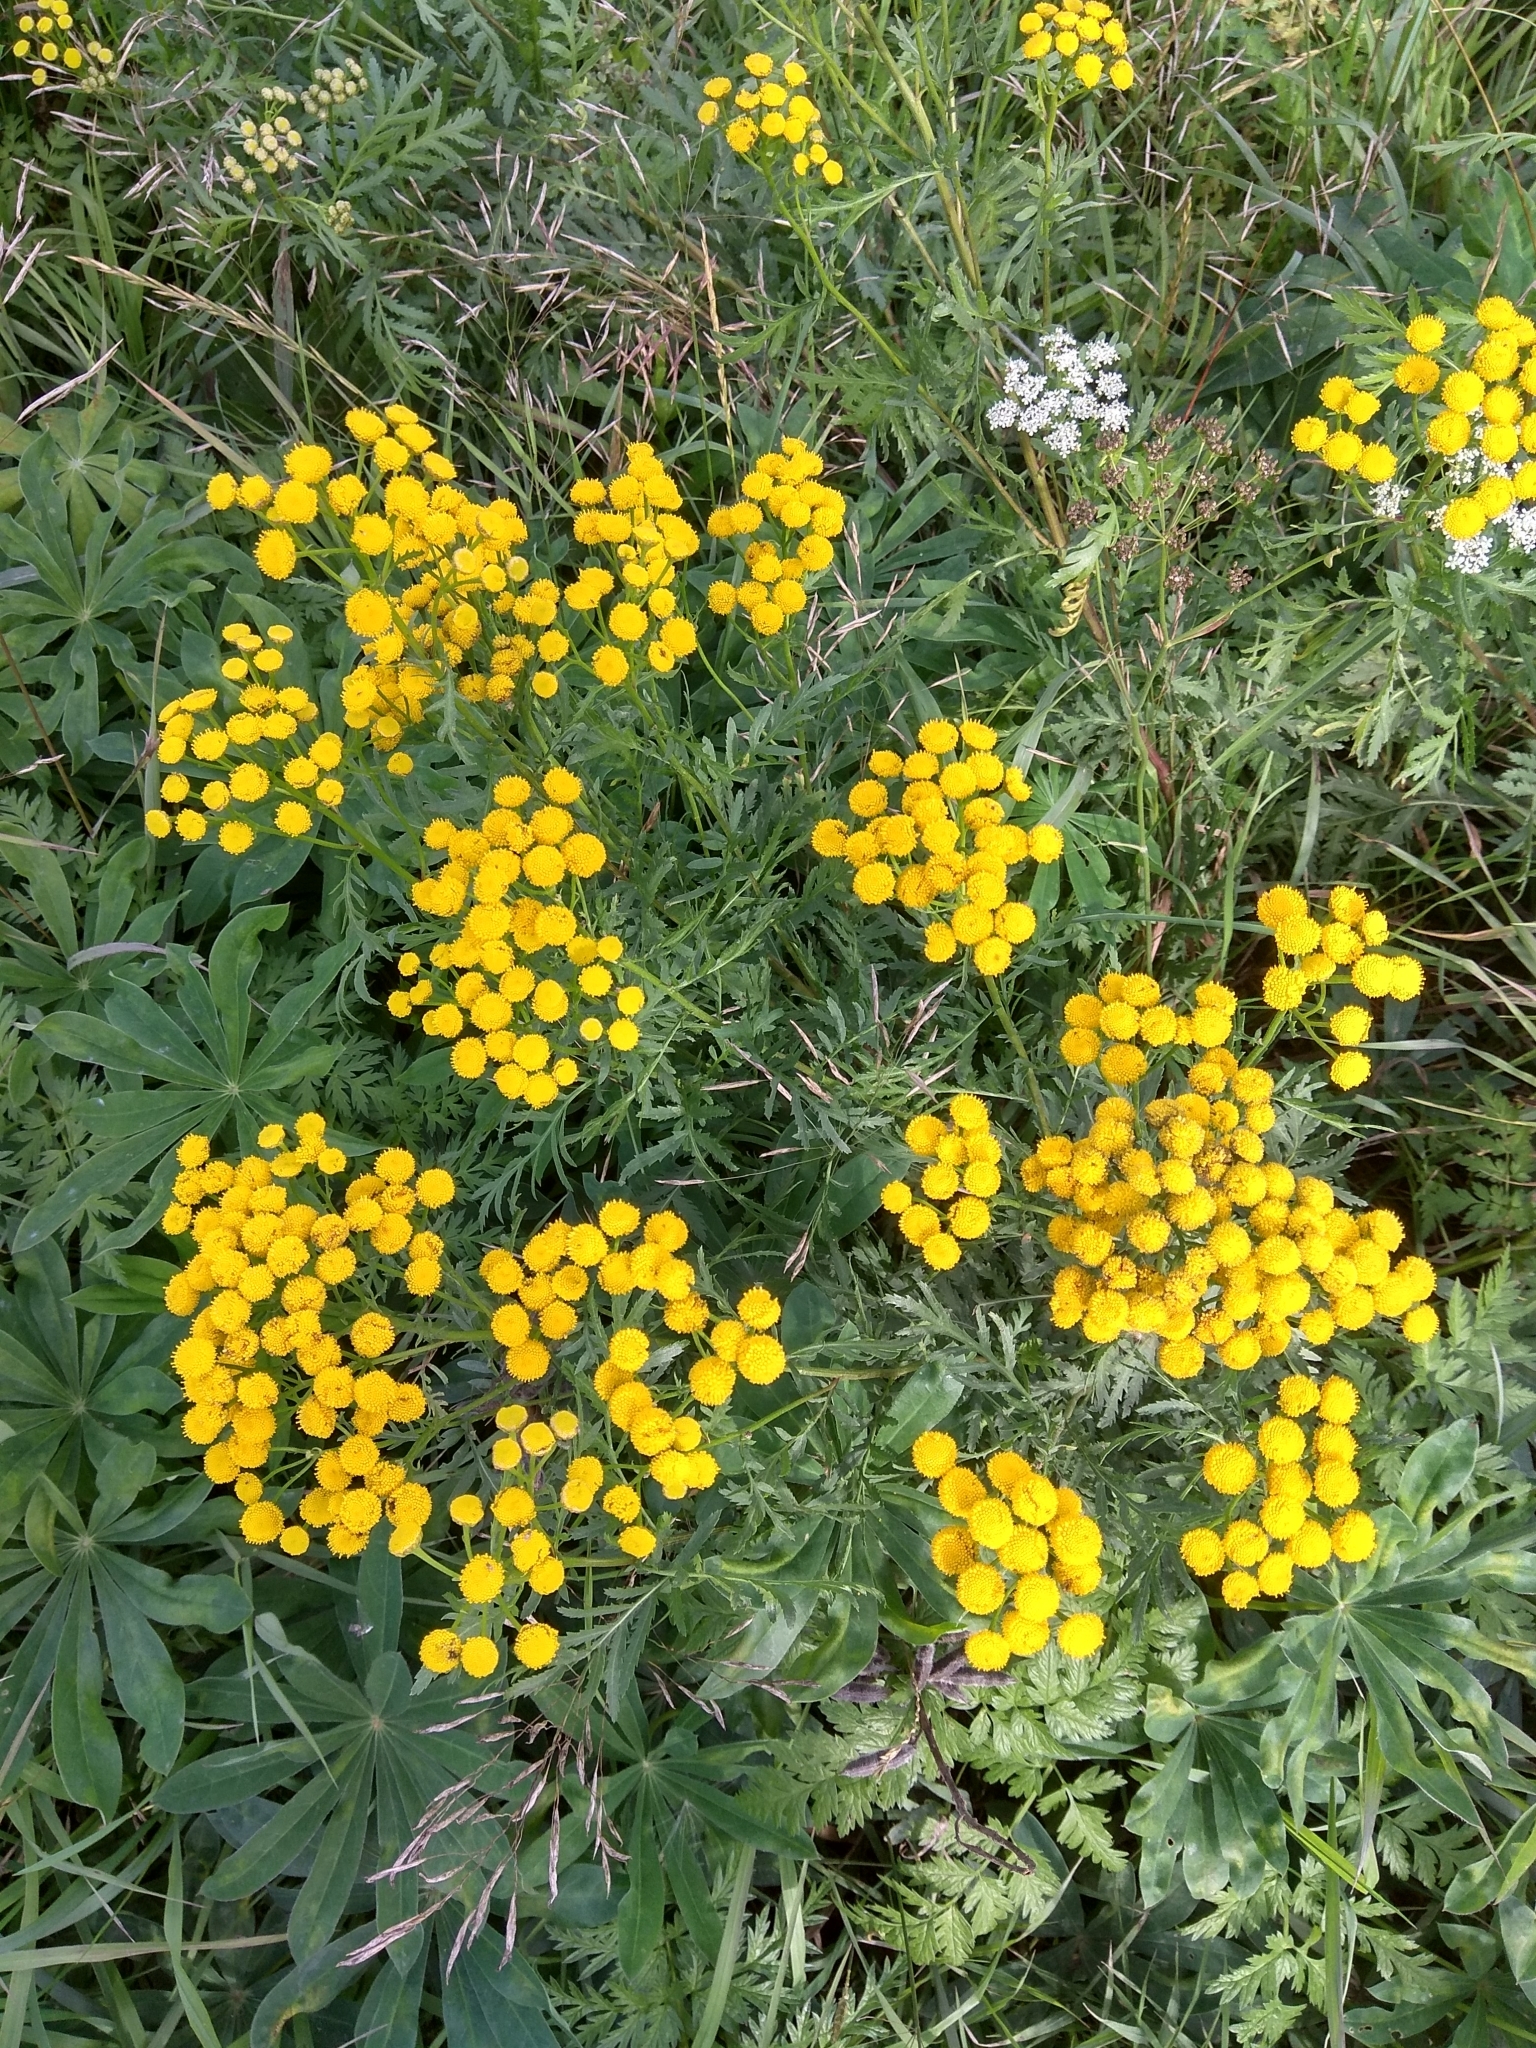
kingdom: Plantae
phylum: Tracheophyta
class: Magnoliopsida
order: Asterales
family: Asteraceae
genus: Tanacetum
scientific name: Tanacetum vulgare
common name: Common tansy
